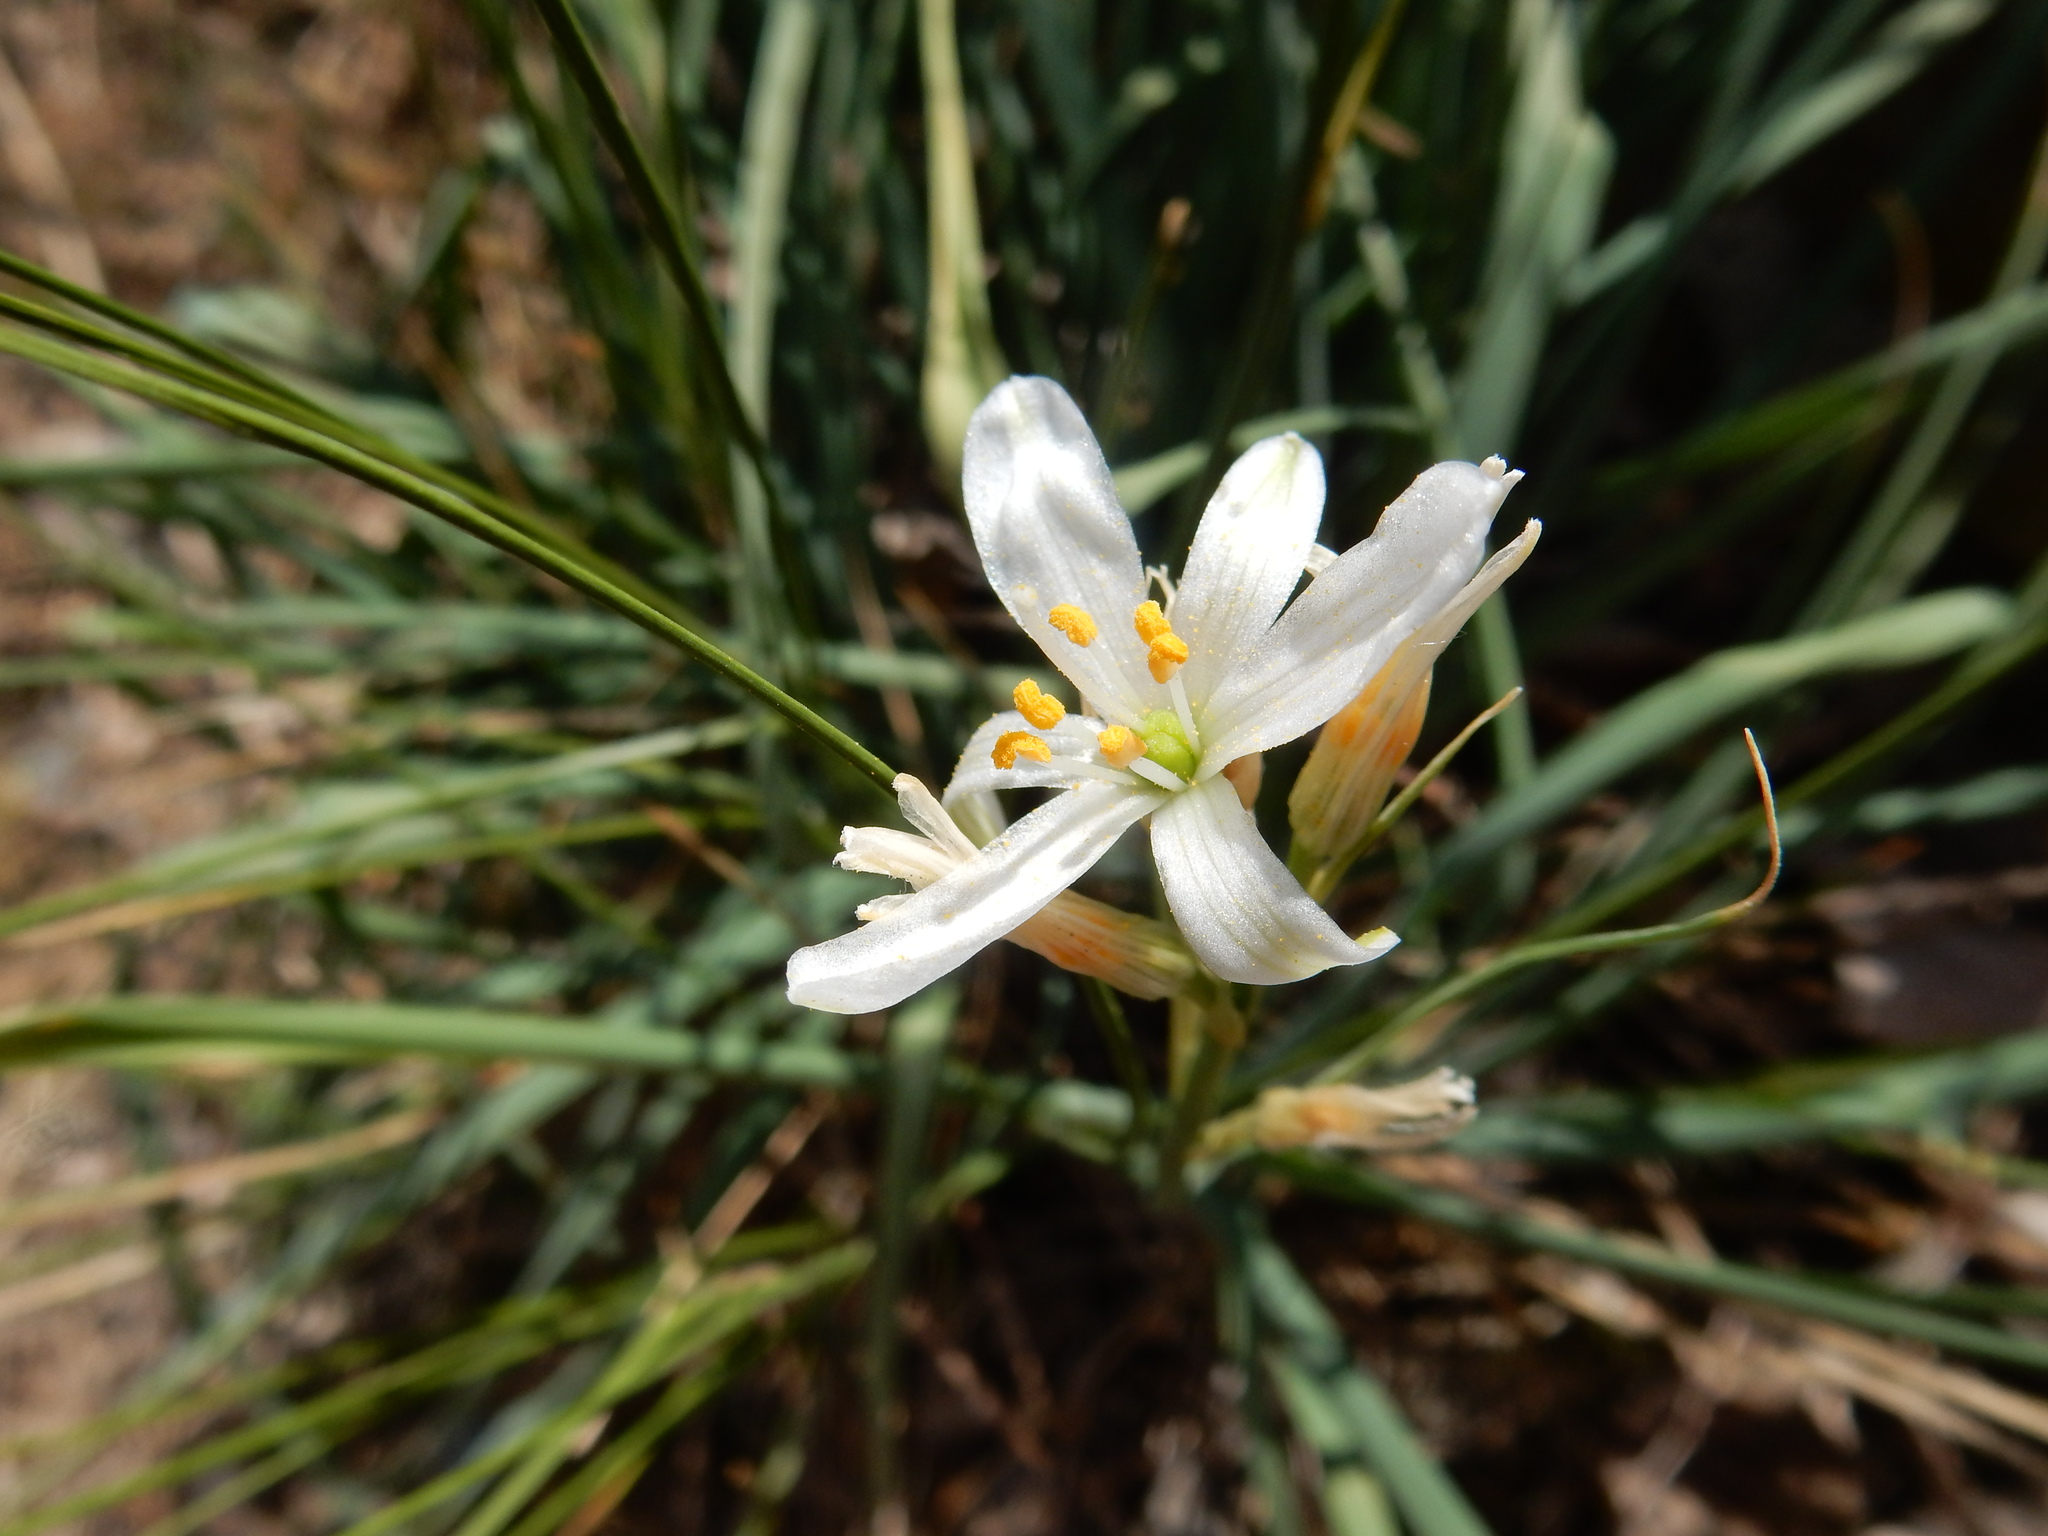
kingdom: Plantae
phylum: Tracheophyta
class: Liliopsida
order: Asparagales
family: Asparagaceae
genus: Anthericum
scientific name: Anthericum liliago
